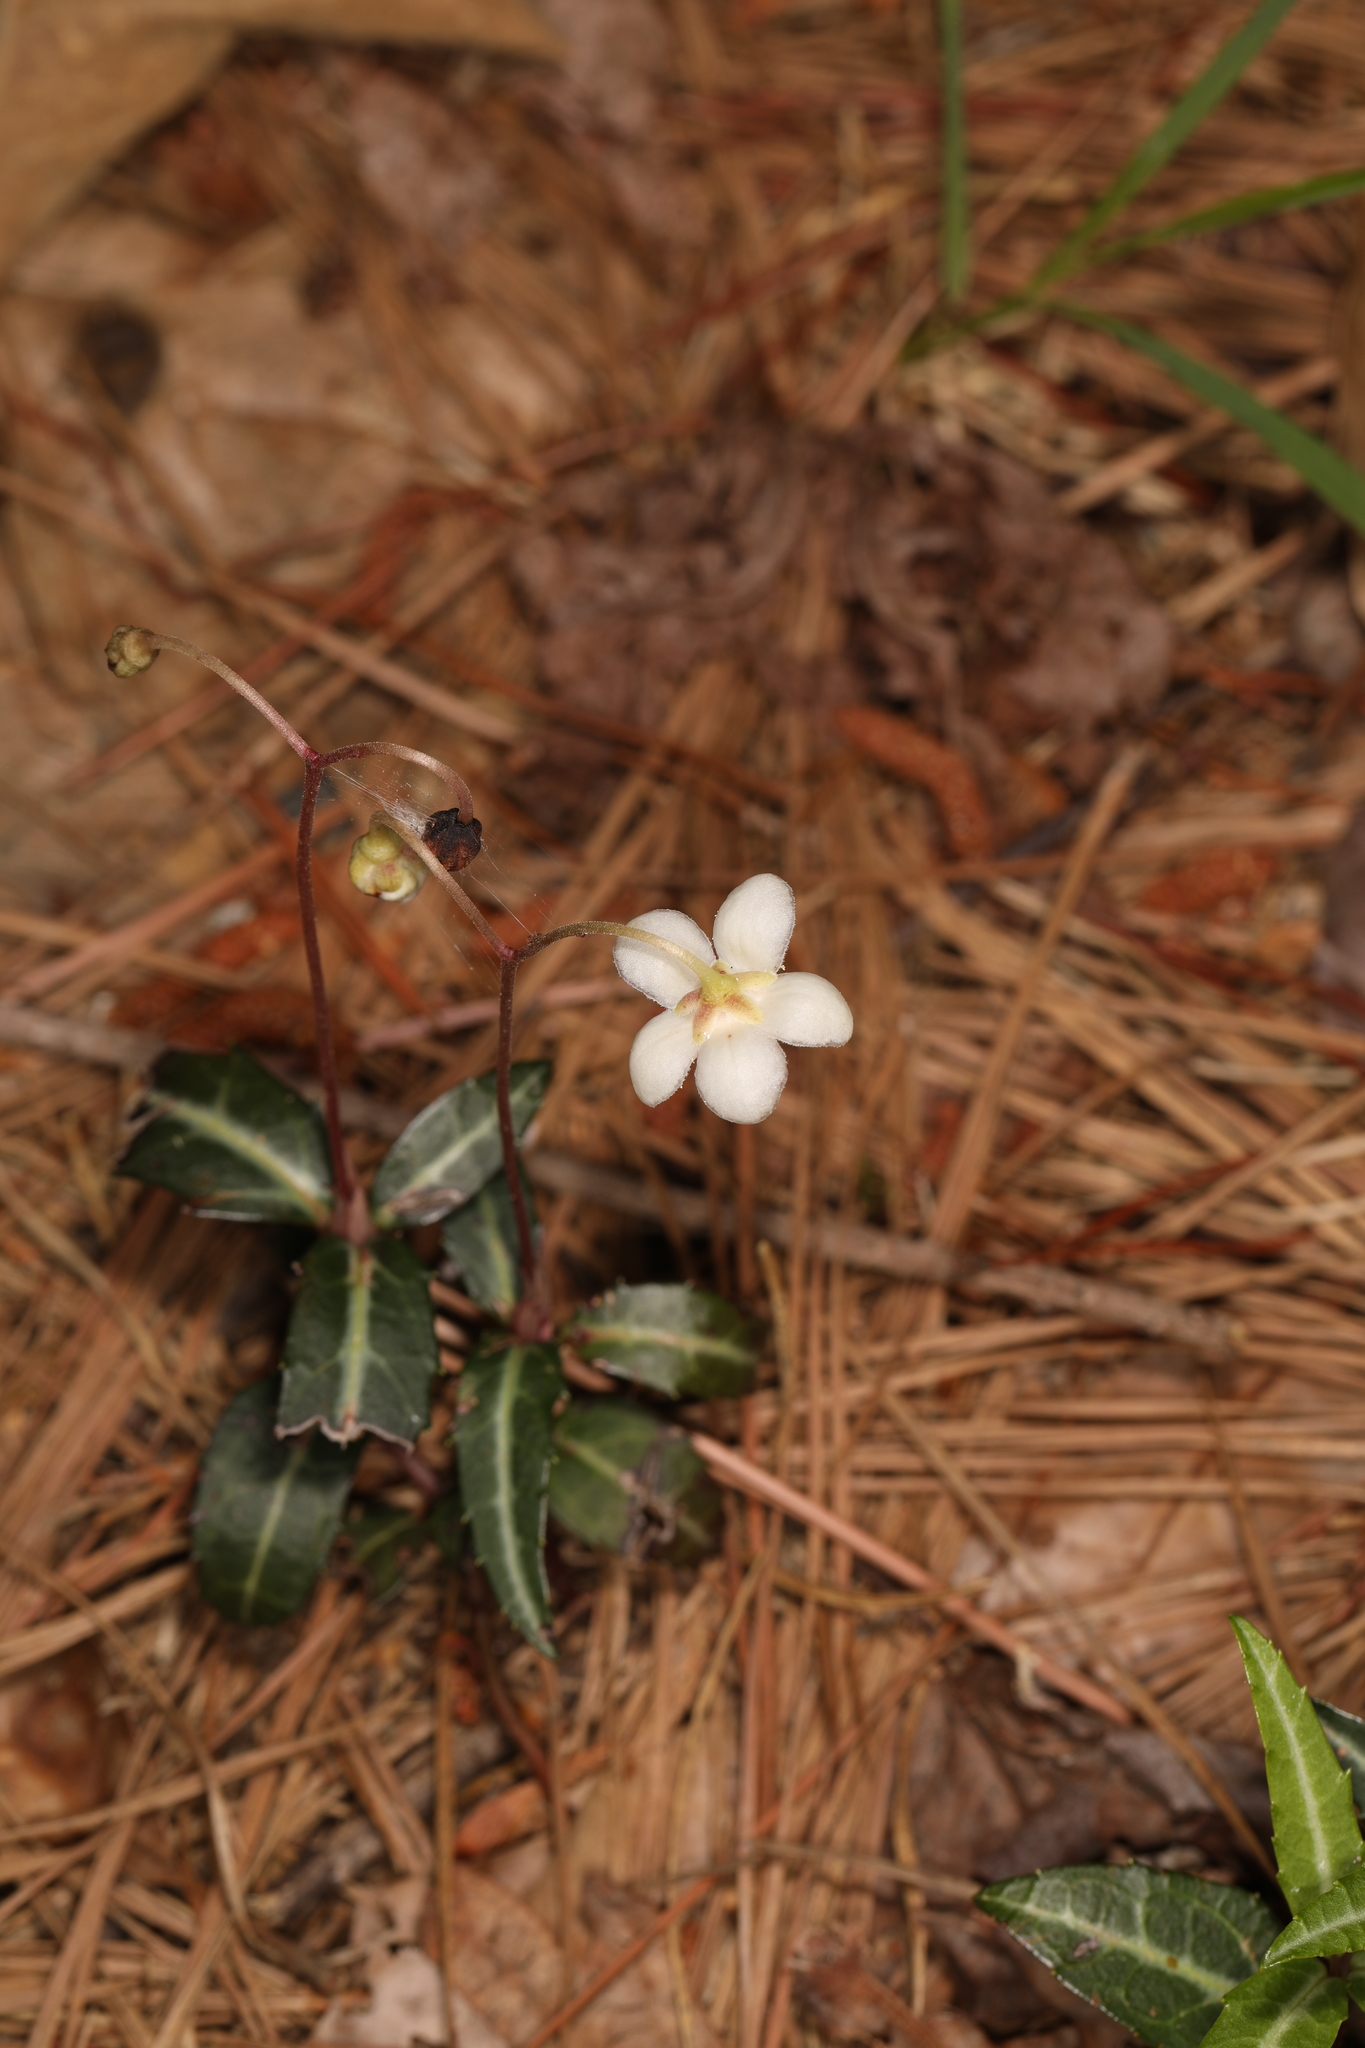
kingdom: Plantae
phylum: Tracheophyta
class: Magnoliopsida
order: Ericales
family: Ericaceae
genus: Chimaphila
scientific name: Chimaphila maculata
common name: Spotted pipsissewa
